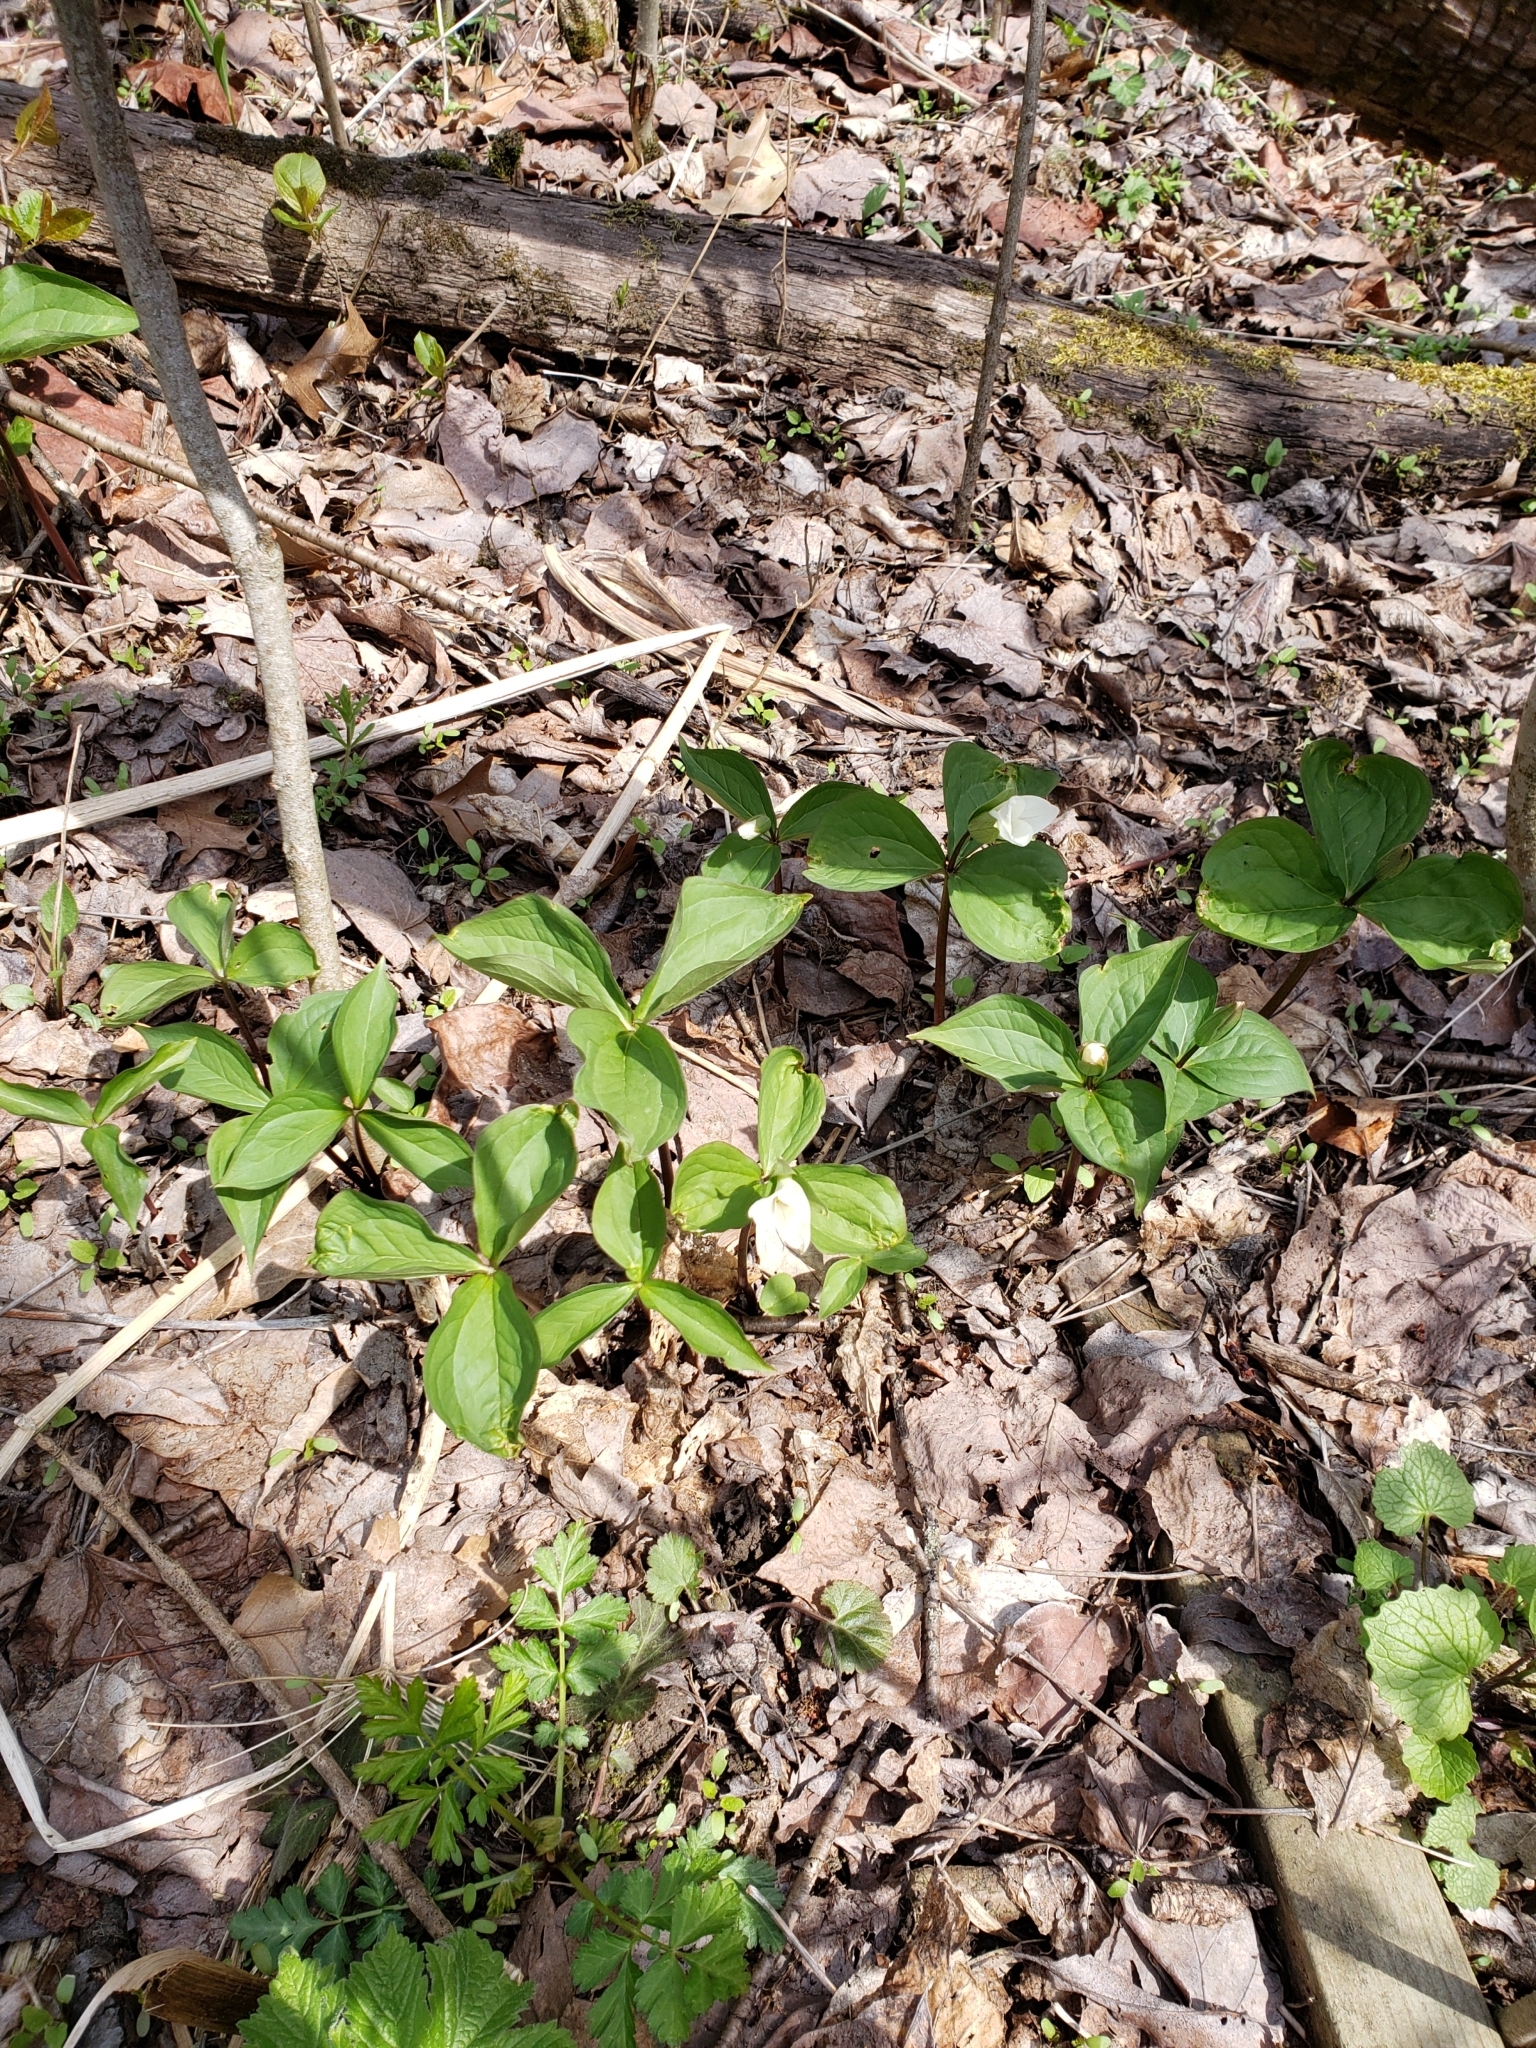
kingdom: Plantae
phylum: Tracheophyta
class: Liliopsida
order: Liliales
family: Melanthiaceae
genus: Trillium
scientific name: Trillium grandiflorum
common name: Great white trillium
